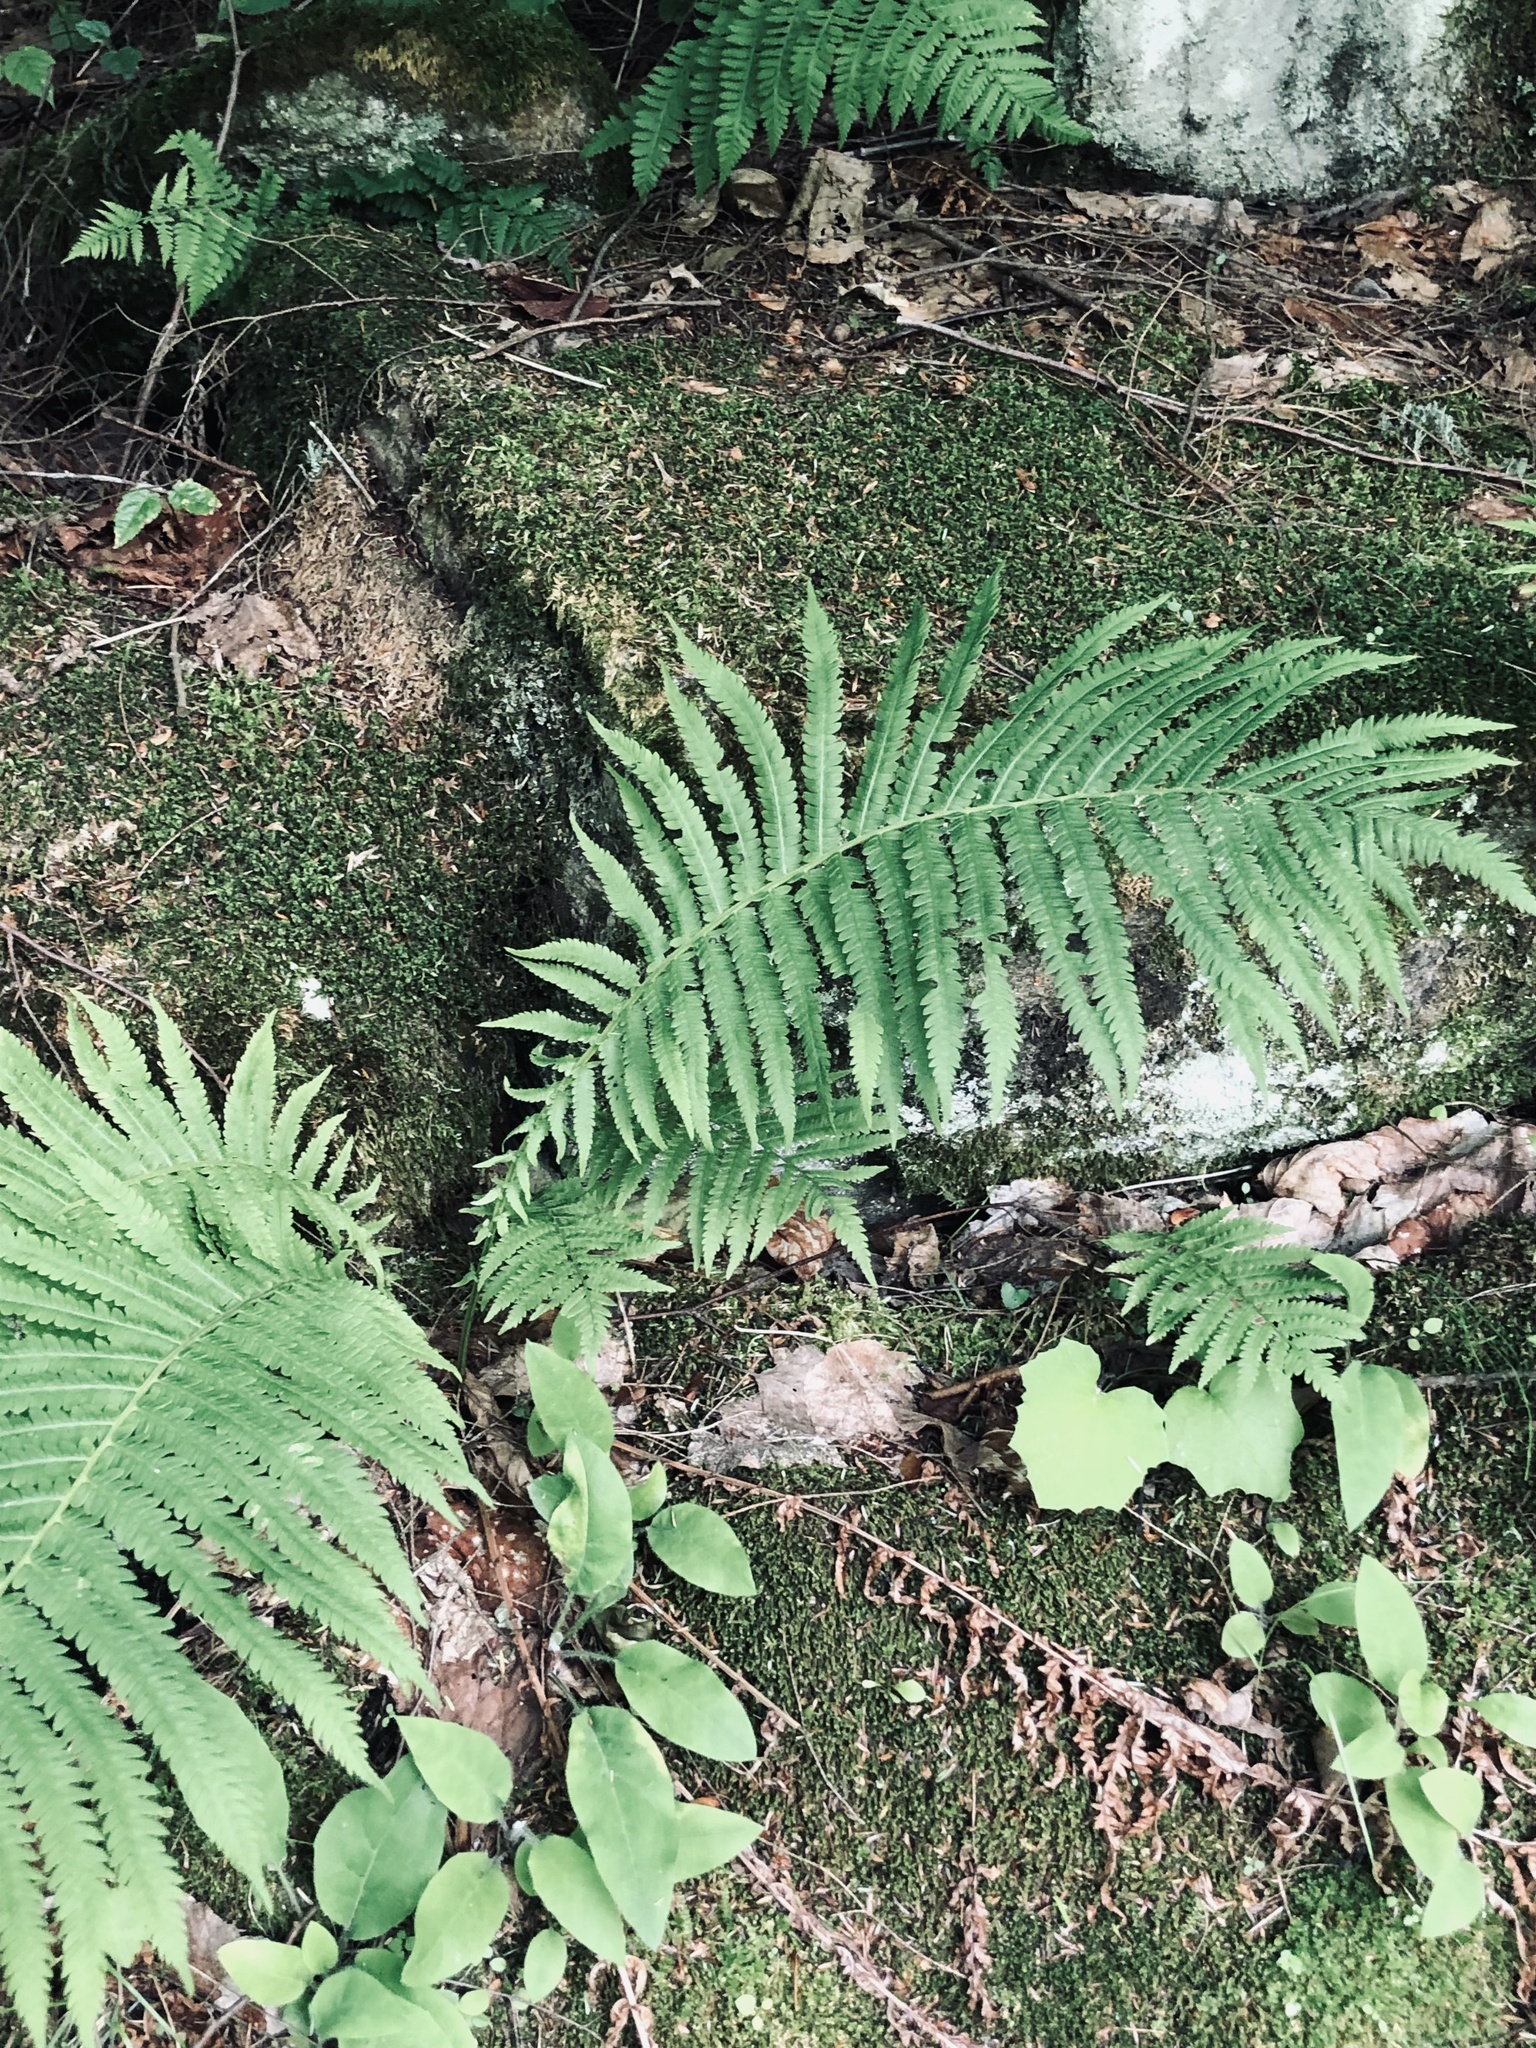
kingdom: Plantae
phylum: Tracheophyta
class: Polypodiopsida
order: Polypodiales
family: Onocleaceae
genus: Matteuccia
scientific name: Matteuccia struthiopteris
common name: Ostrich fern
